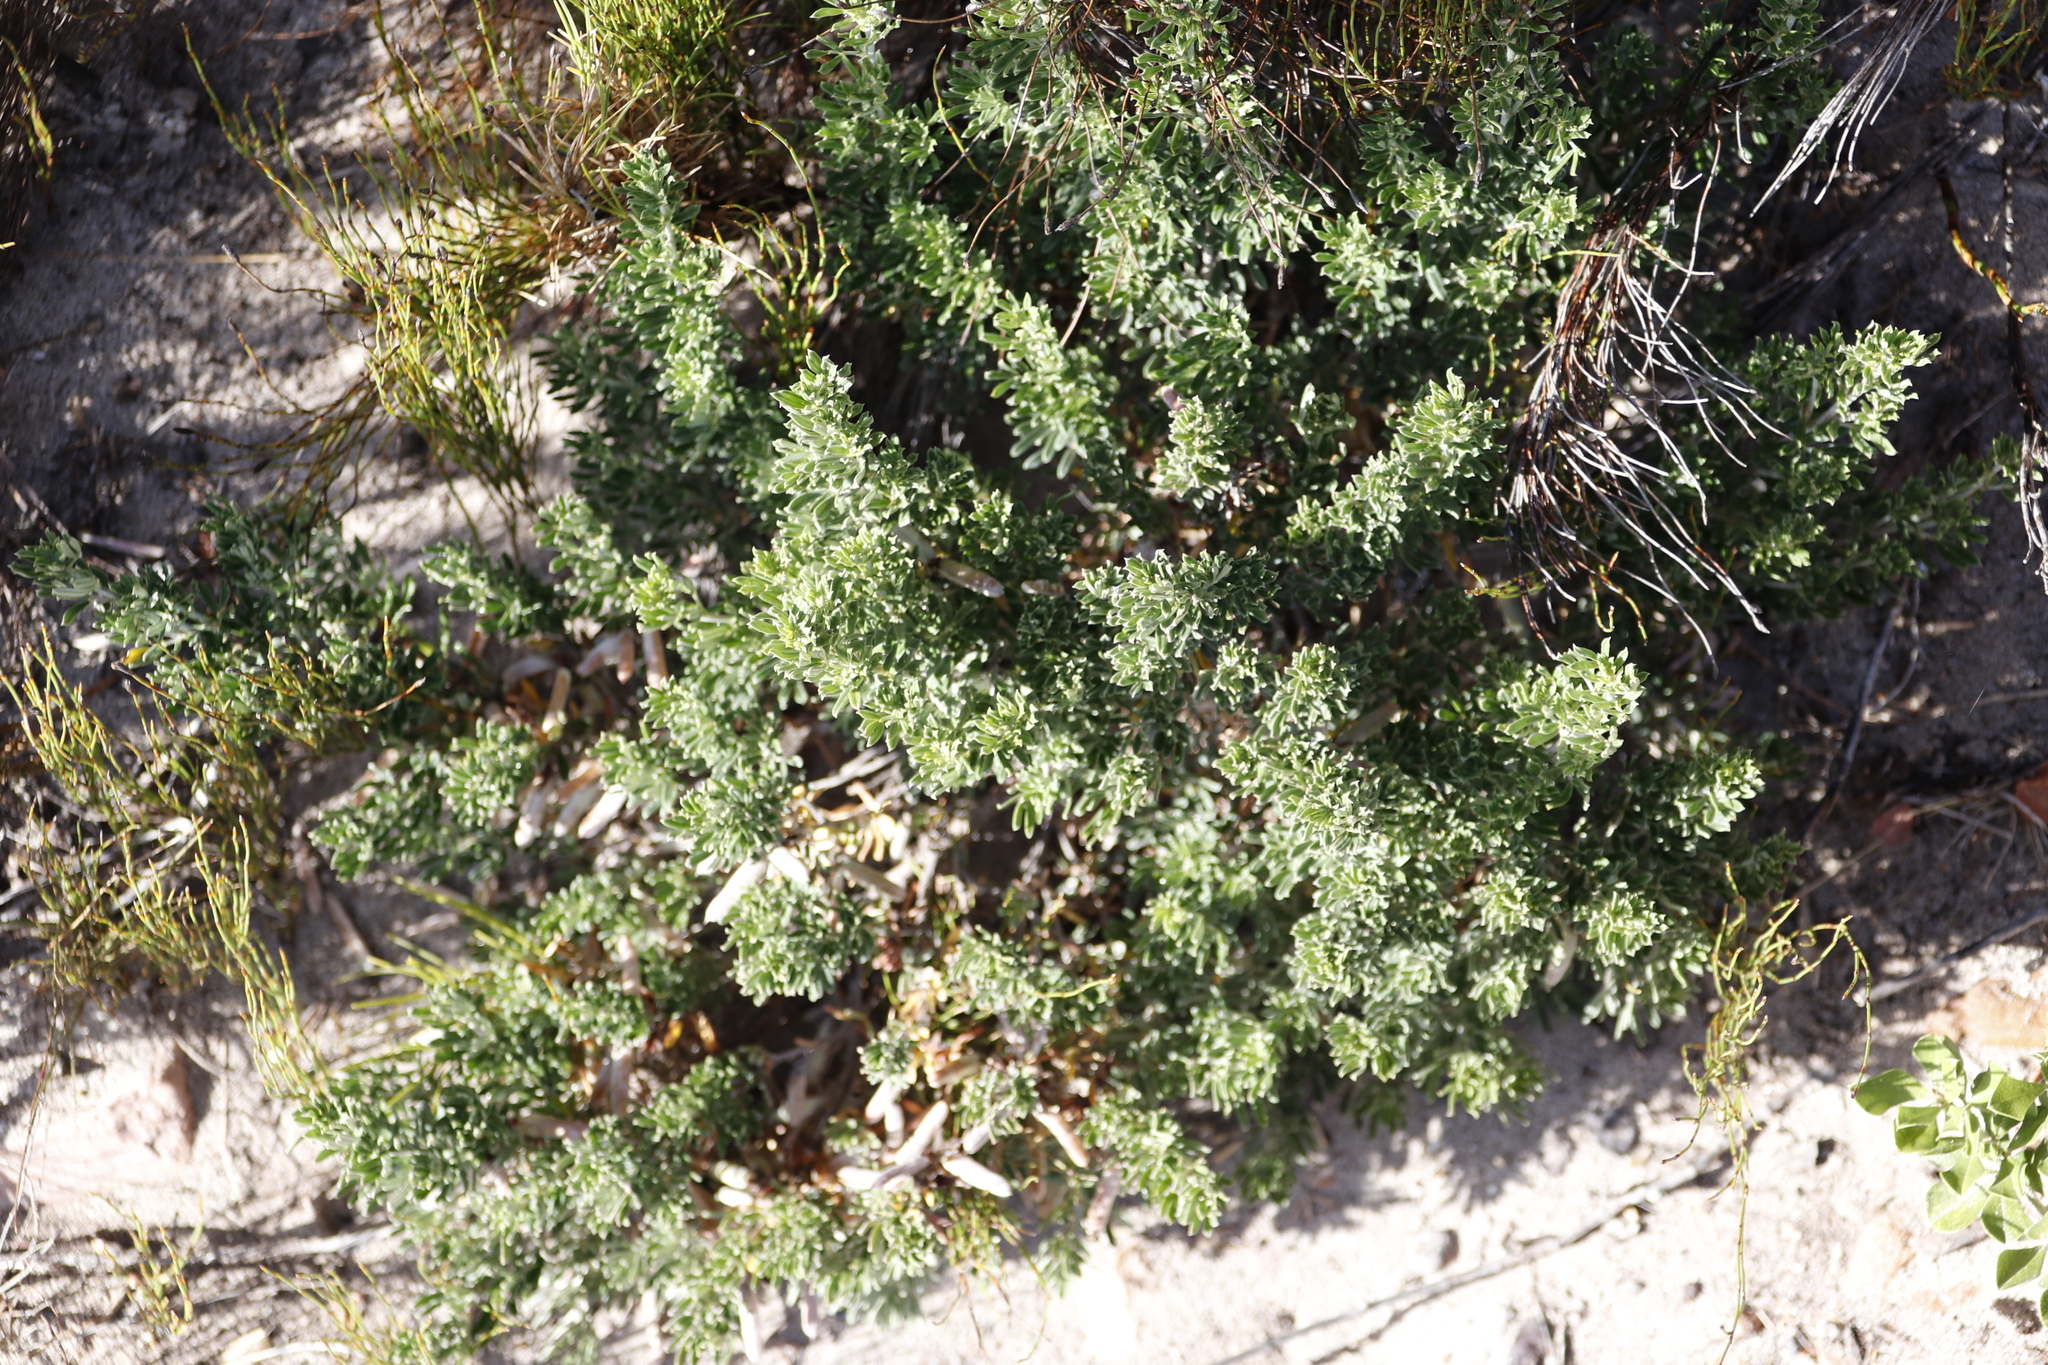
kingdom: Plantae
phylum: Tracheophyta
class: Magnoliopsida
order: Fabales
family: Fabaceae
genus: Indigofera
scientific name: Indigofera brachystachya
